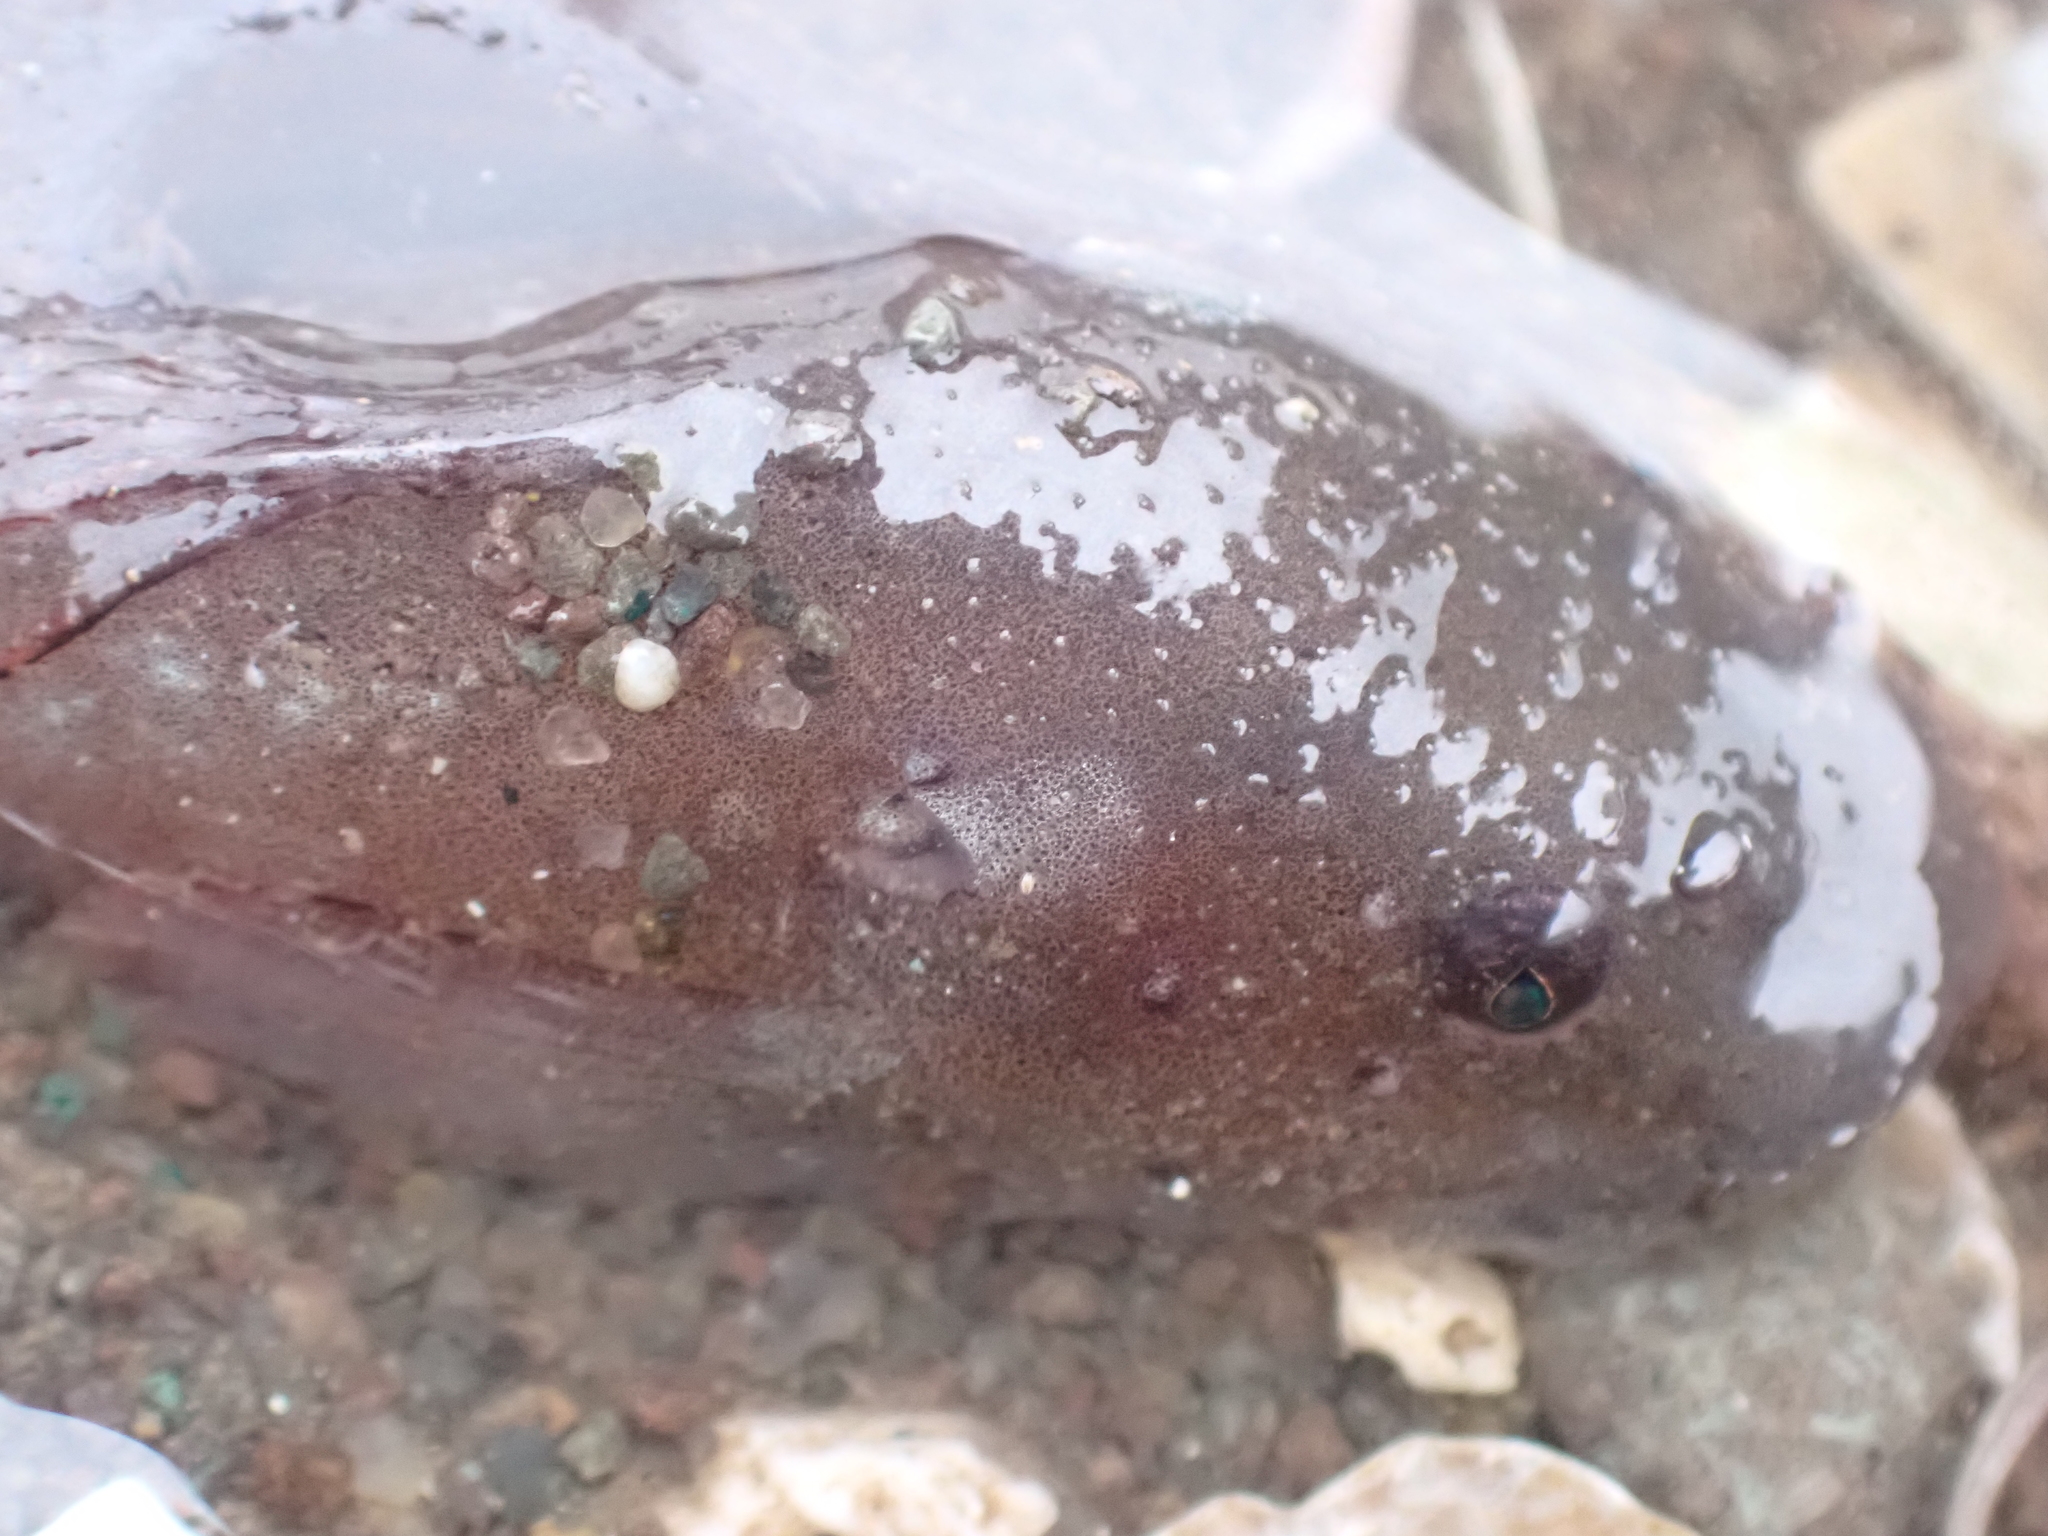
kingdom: Animalia
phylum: Chordata
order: Scorpaeniformes
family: Liparidae
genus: Liparis
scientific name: Liparis atlanticus
